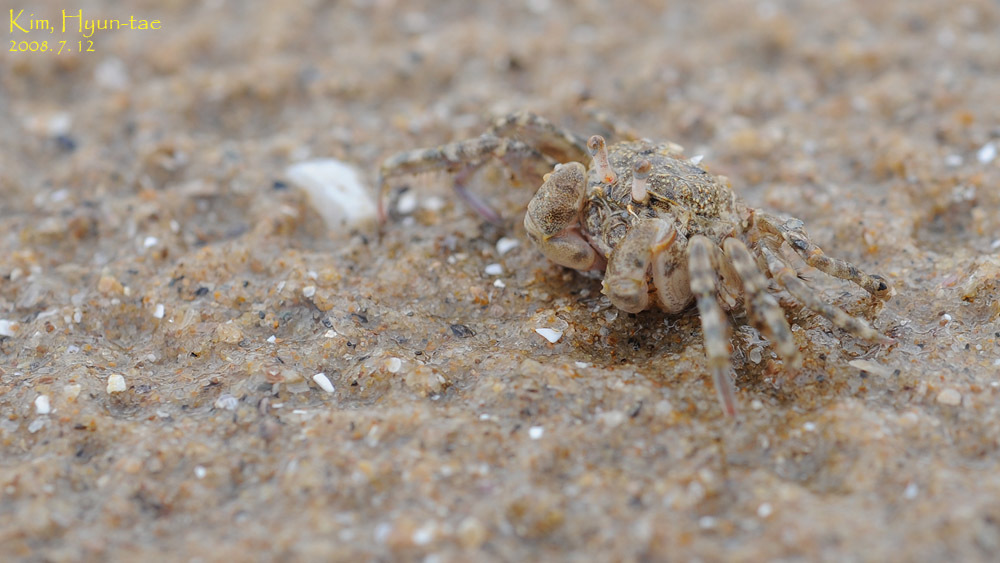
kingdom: Animalia
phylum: Arthropoda
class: Malacostraca
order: Decapoda
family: Dotillidae
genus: Scopimera
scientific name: Scopimera globosa
